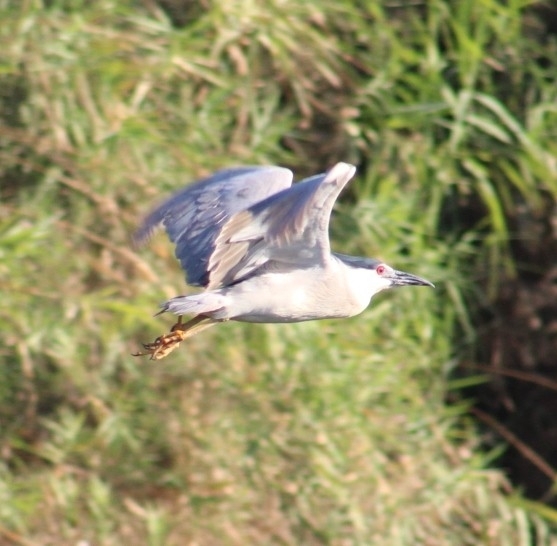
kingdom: Animalia
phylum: Chordata
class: Aves
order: Pelecaniformes
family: Ardeidae
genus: Nycticorax
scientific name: Nycticorax nycticorax
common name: Black-crowned night heron
